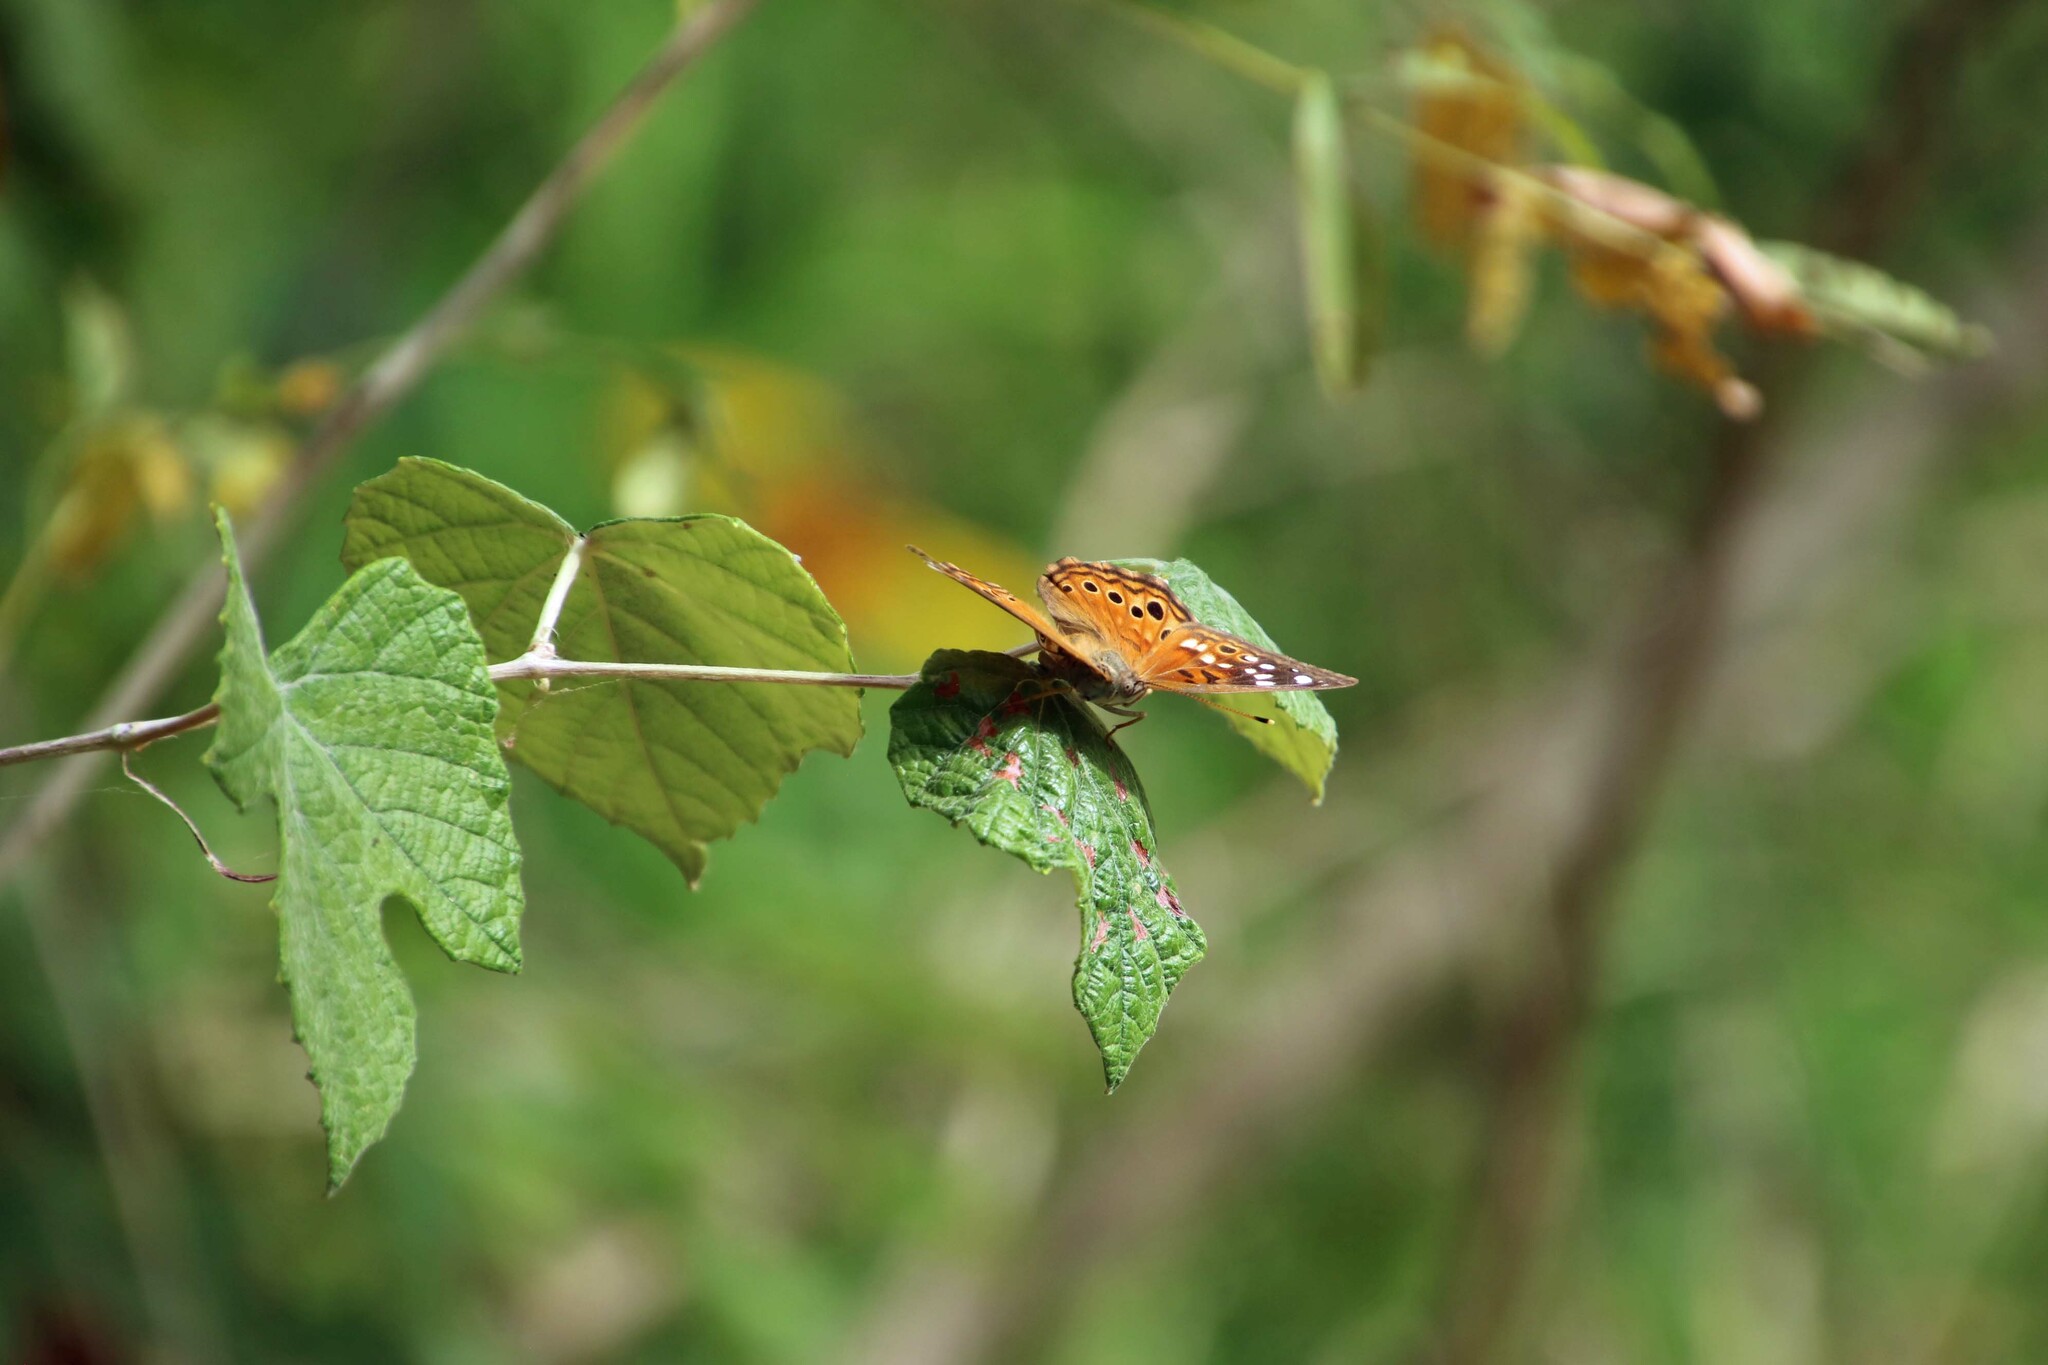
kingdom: Animalia
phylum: Arthropoda
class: Insecta
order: Lepidoptera
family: Nymphalidae
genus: Asterocampa
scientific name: Asterocampa celtis
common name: Hackberry emperor
